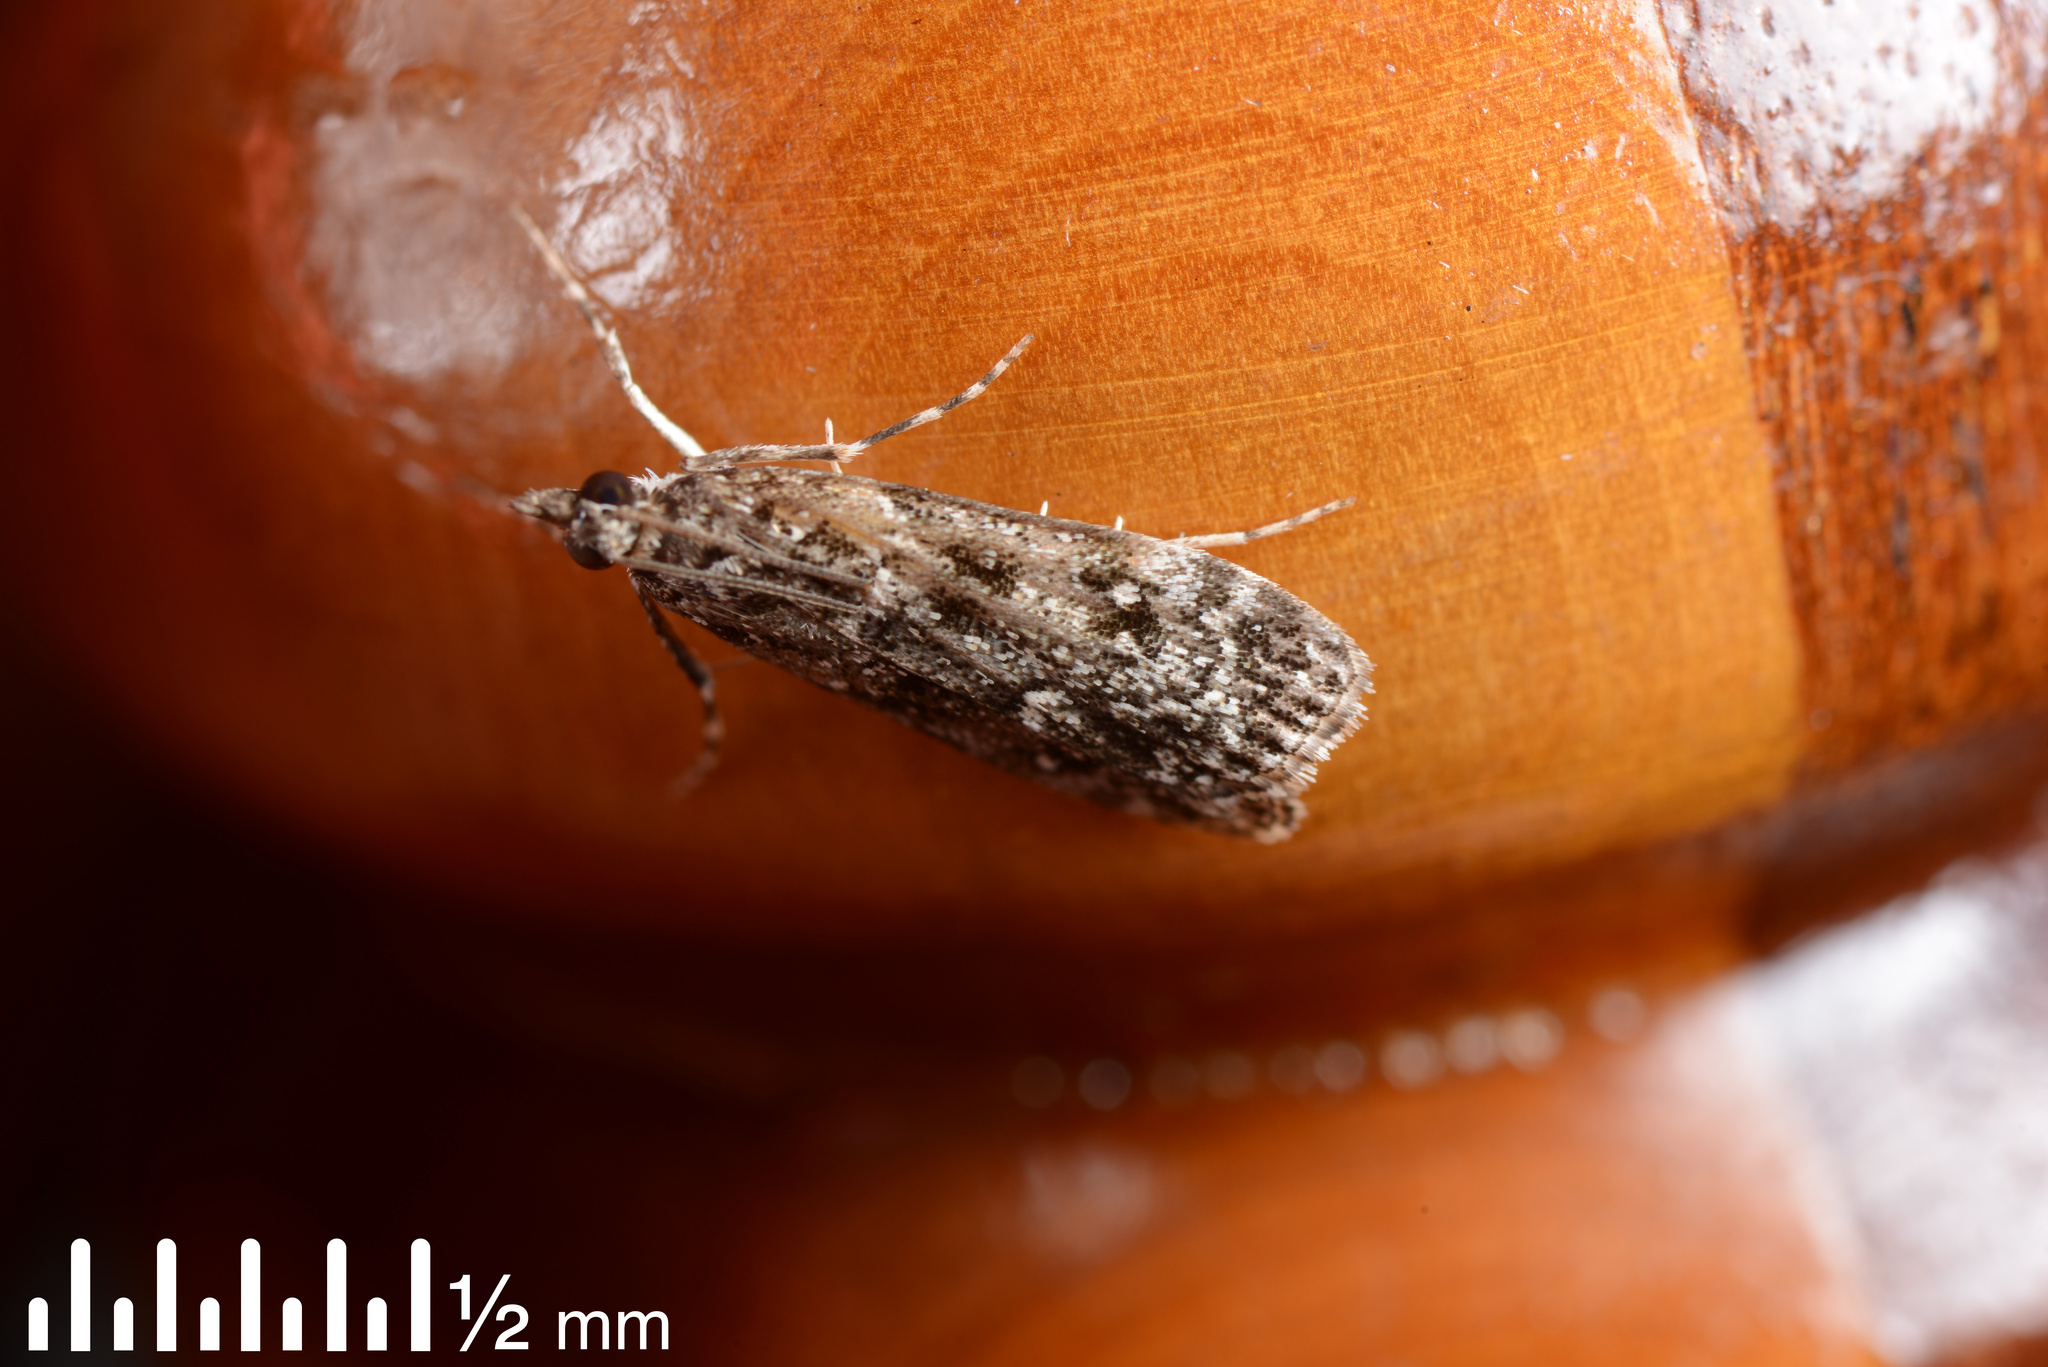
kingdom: Animalia
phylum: Arthropoda
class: Insecta
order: Lepidoptera
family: Crambidae
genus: Eudonia
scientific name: Eudonia philerga
